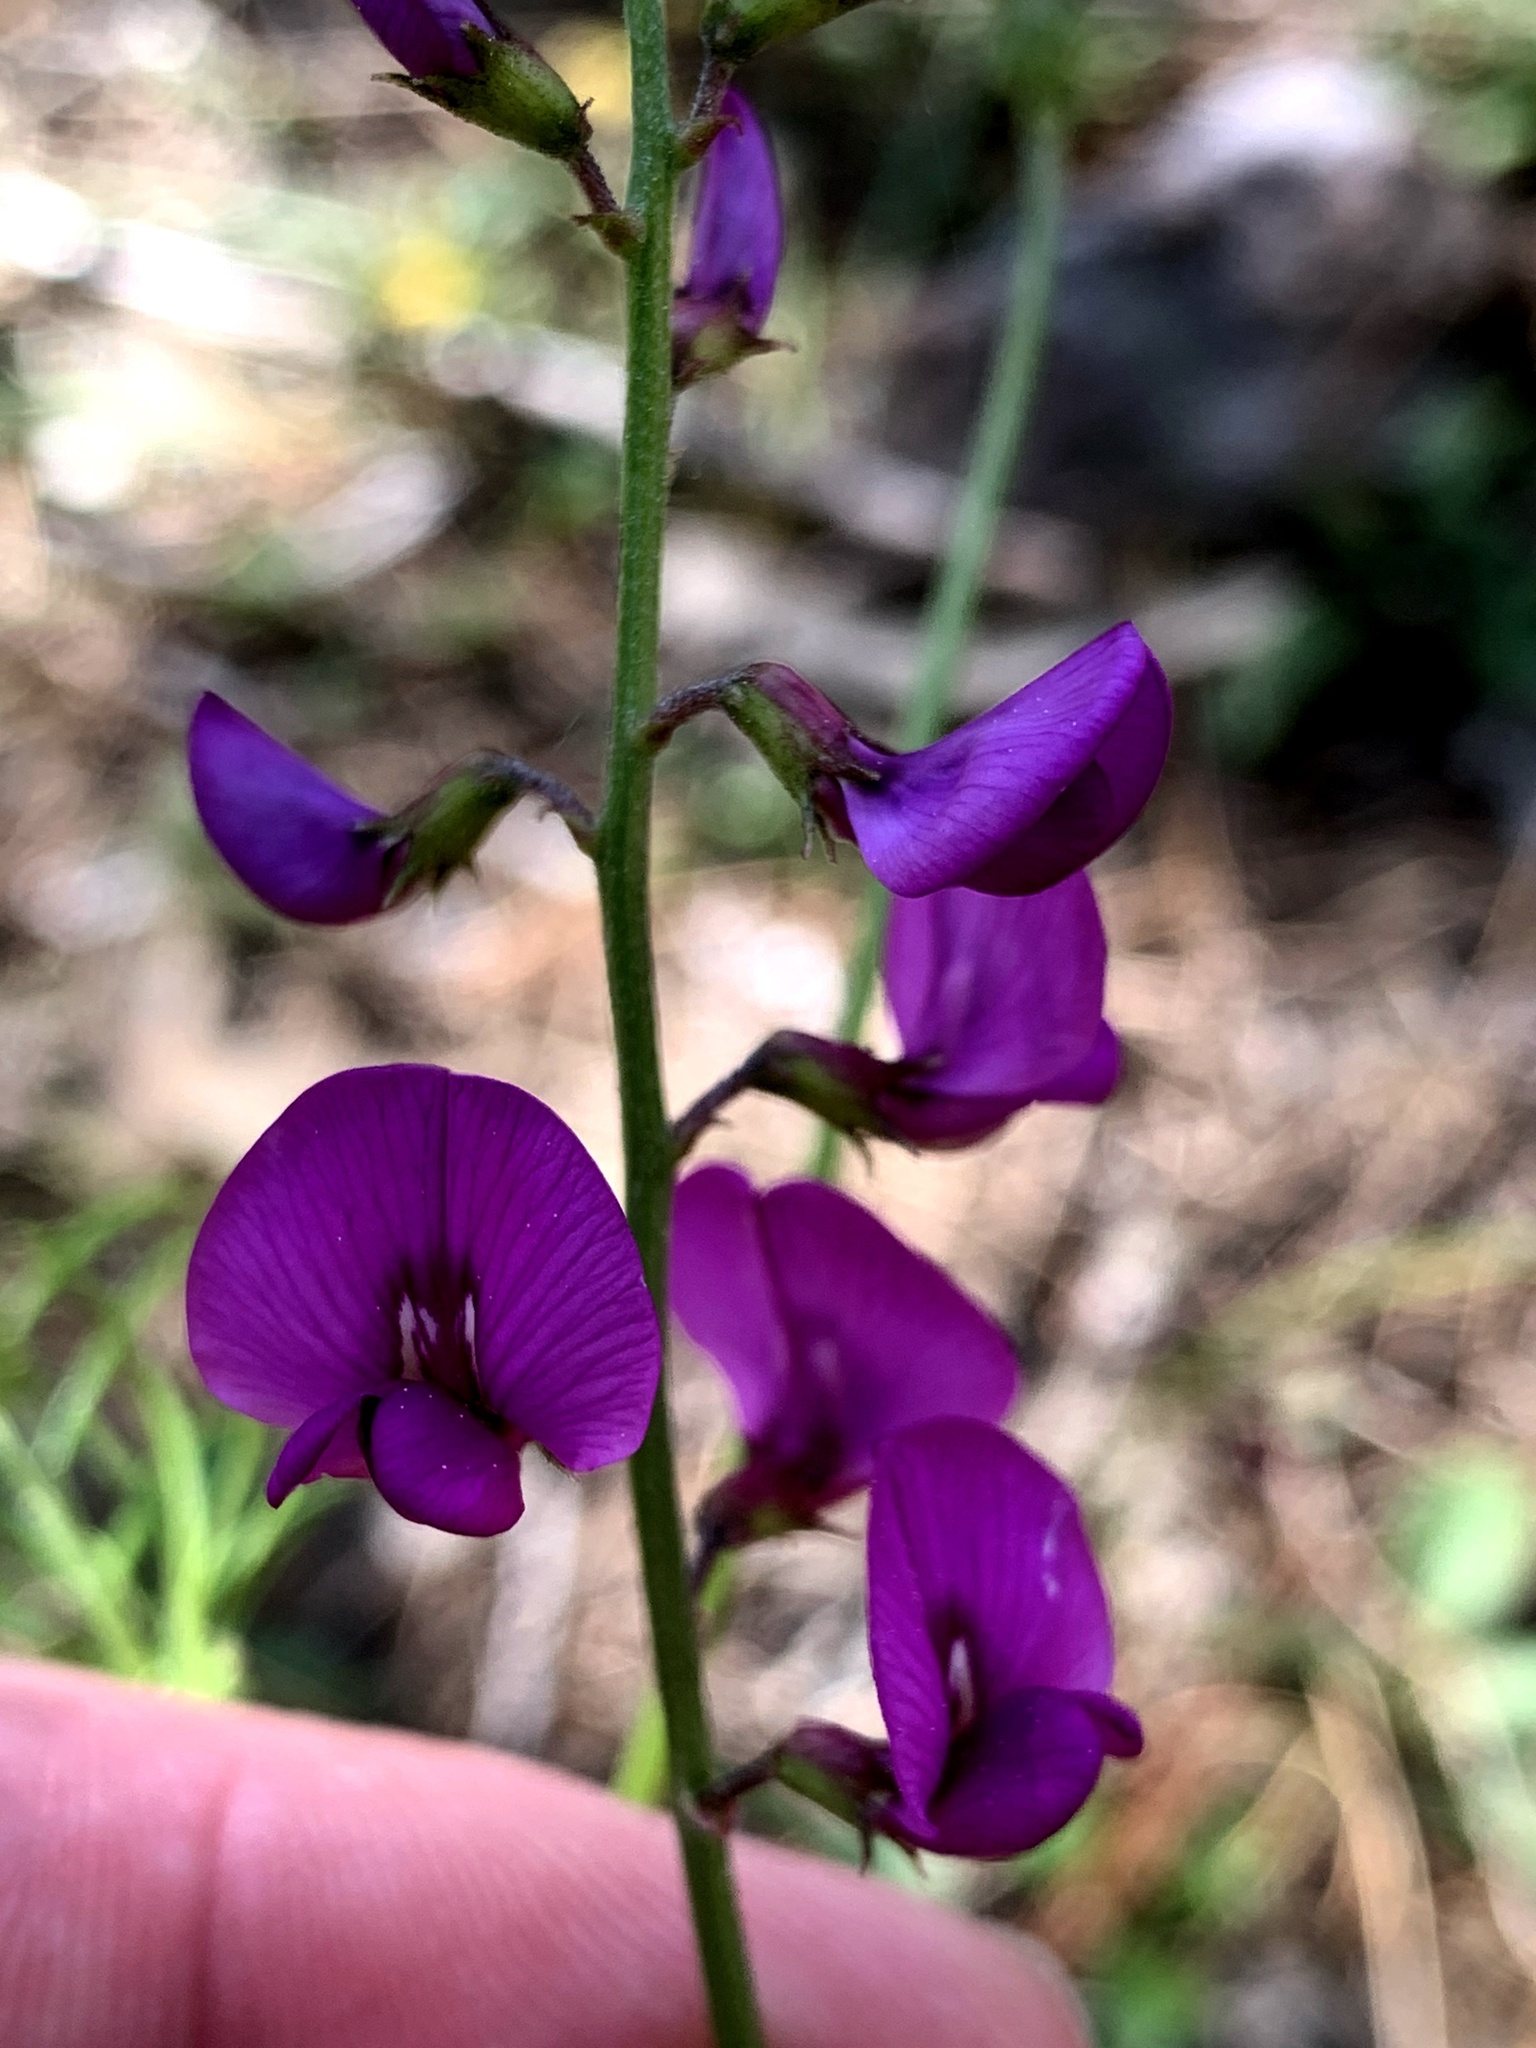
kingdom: Plantae
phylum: Tracheophyta
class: Magnoliopsida
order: Fabales
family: Fabaceae
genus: Swainsona
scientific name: Swainsona recta
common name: Mountain swainson-pea
